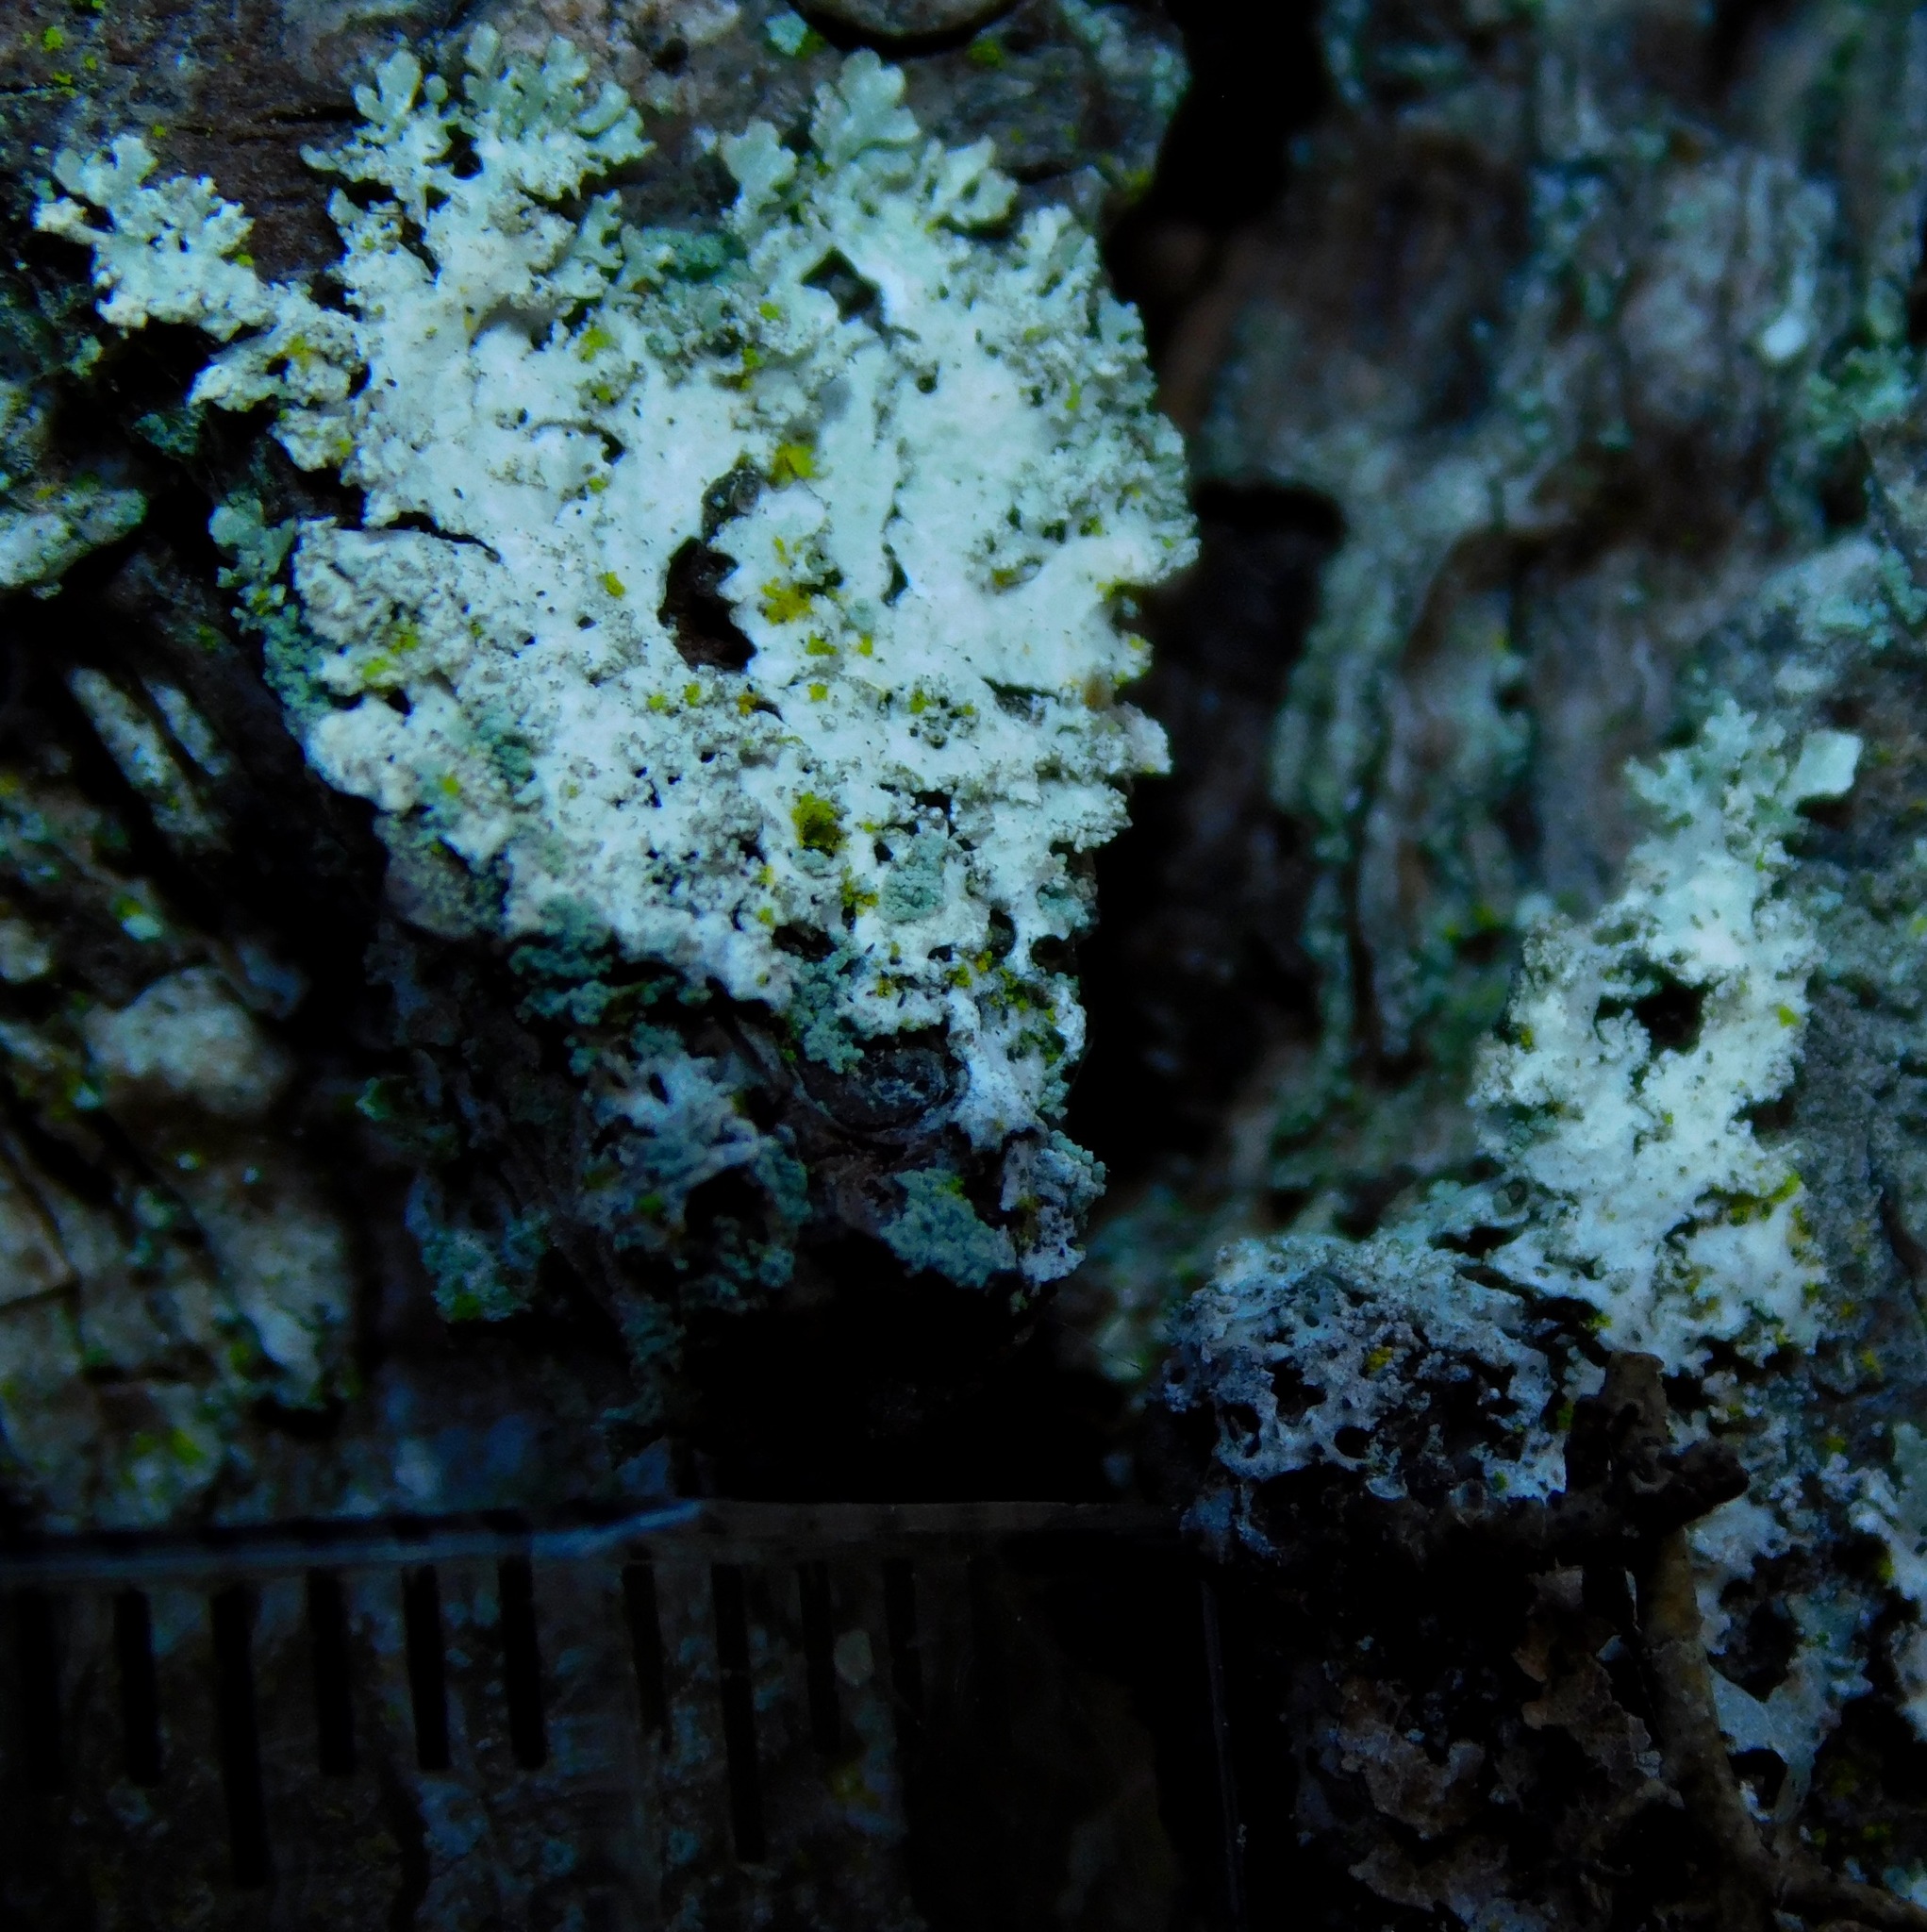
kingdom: Fungi
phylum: Ascomycota
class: Lecanoromycetes
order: Lecanorales
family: Parmeliaceae
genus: Imshaugia
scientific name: Imshaugia aleurites
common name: Salted starburst lichen
